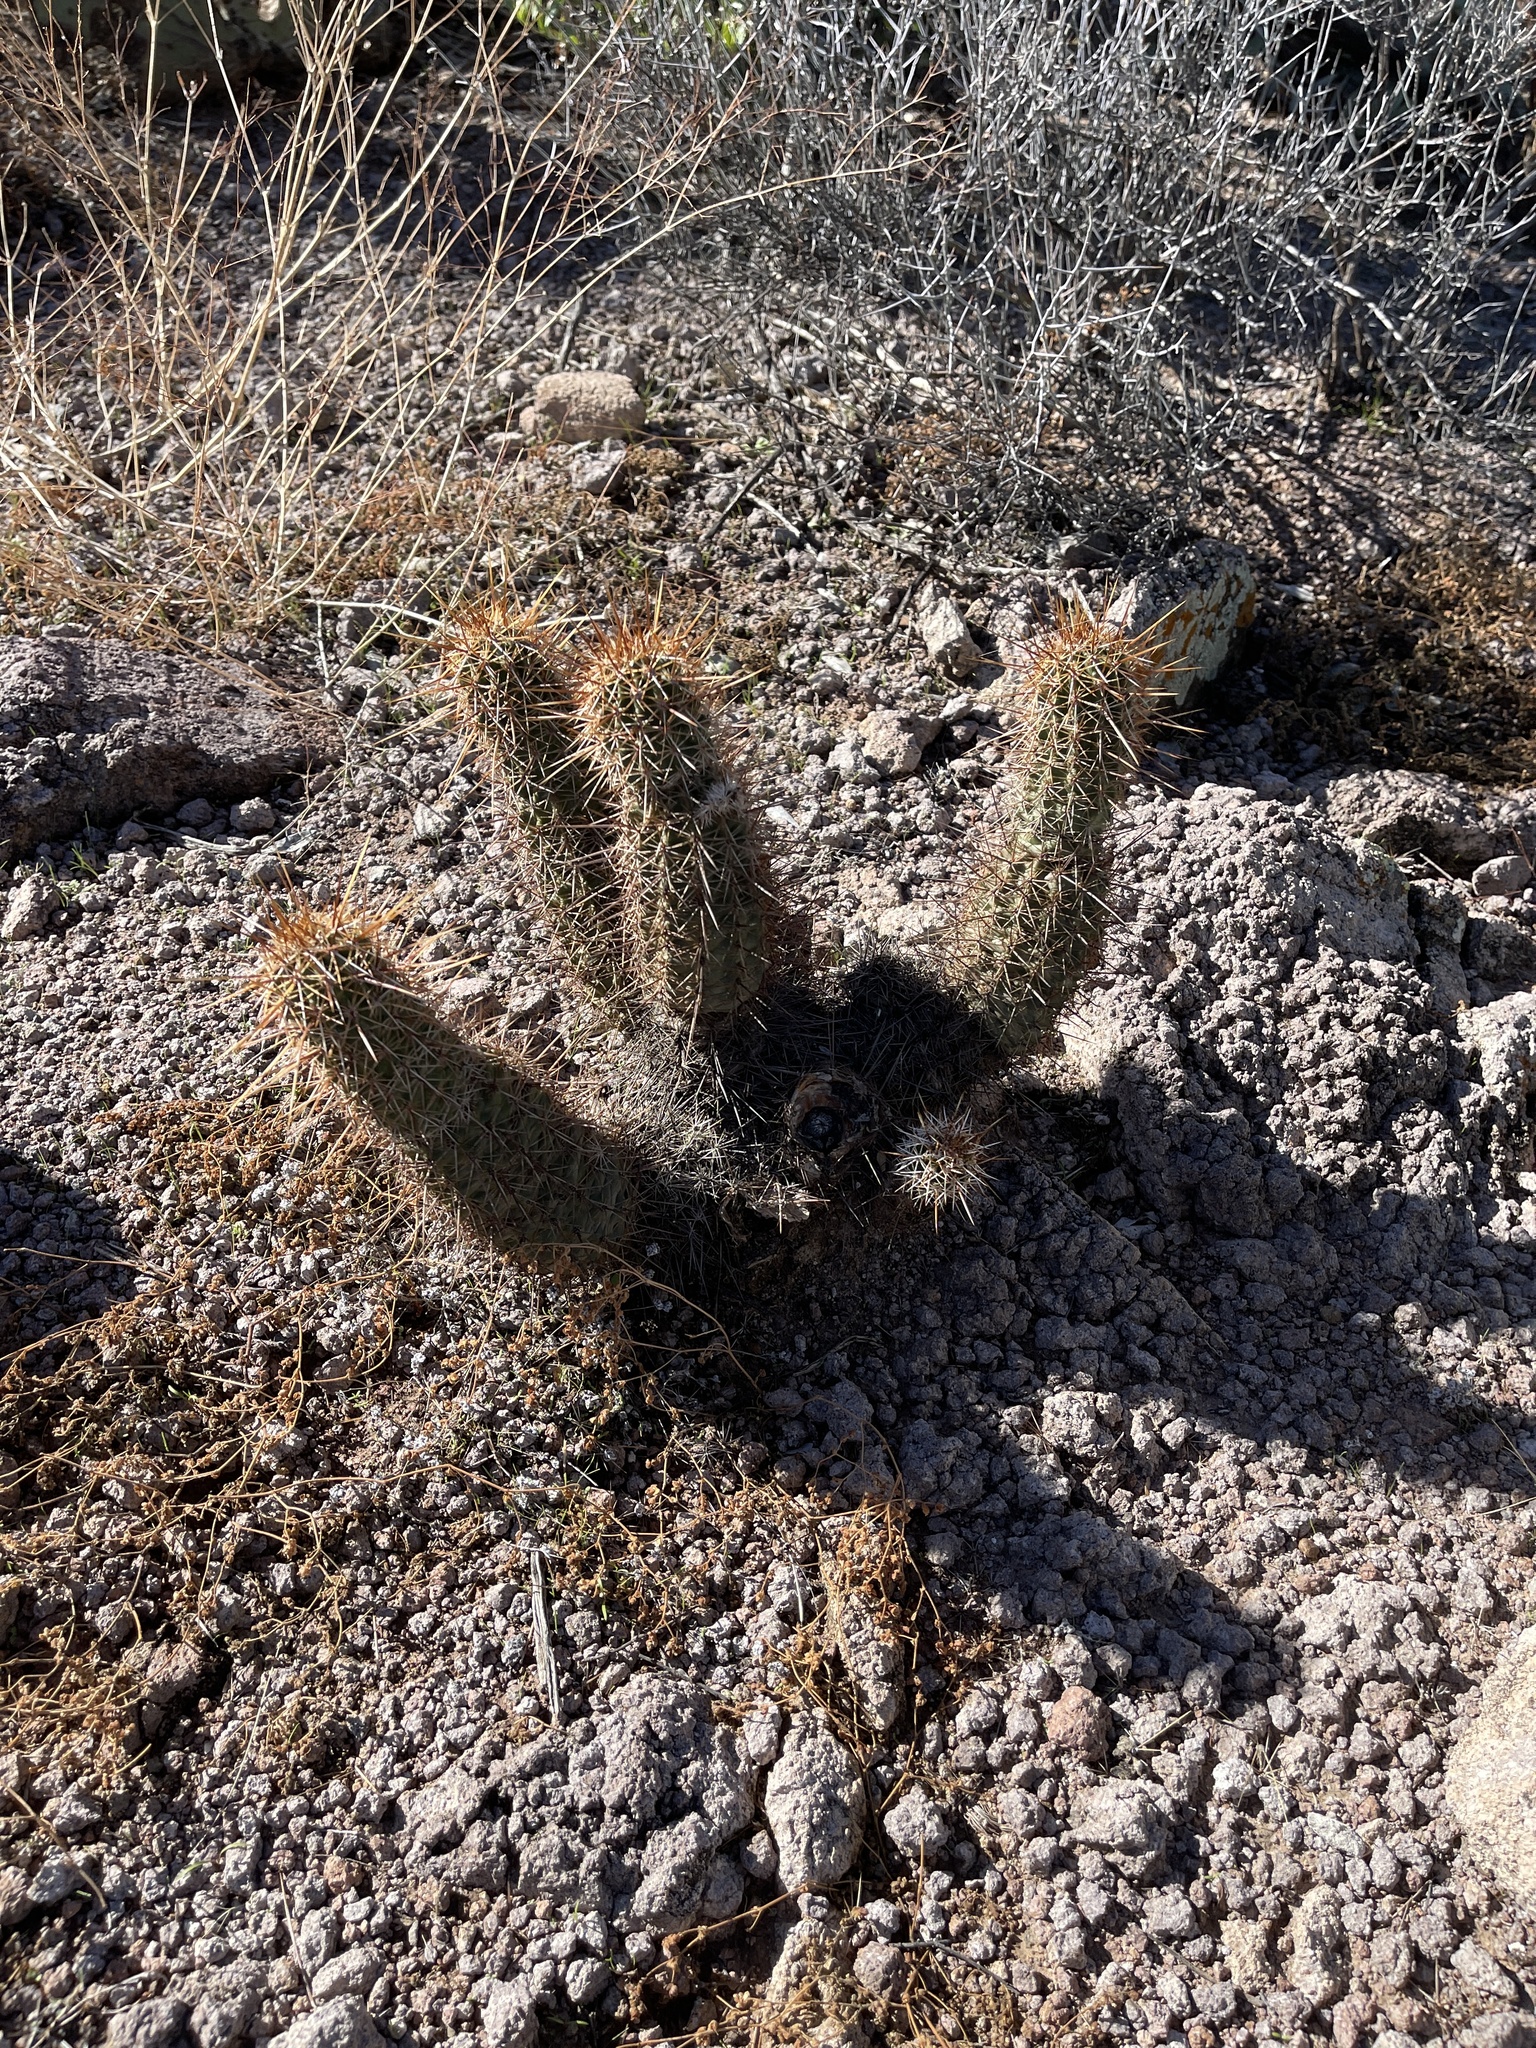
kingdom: Plantae
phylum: Tracheophyta
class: Magnoliopsida
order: Caryophyllales
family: Cactaceae
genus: Echinocereus
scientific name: Echinocereus fasciculatus
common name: Bundle hedgehog
